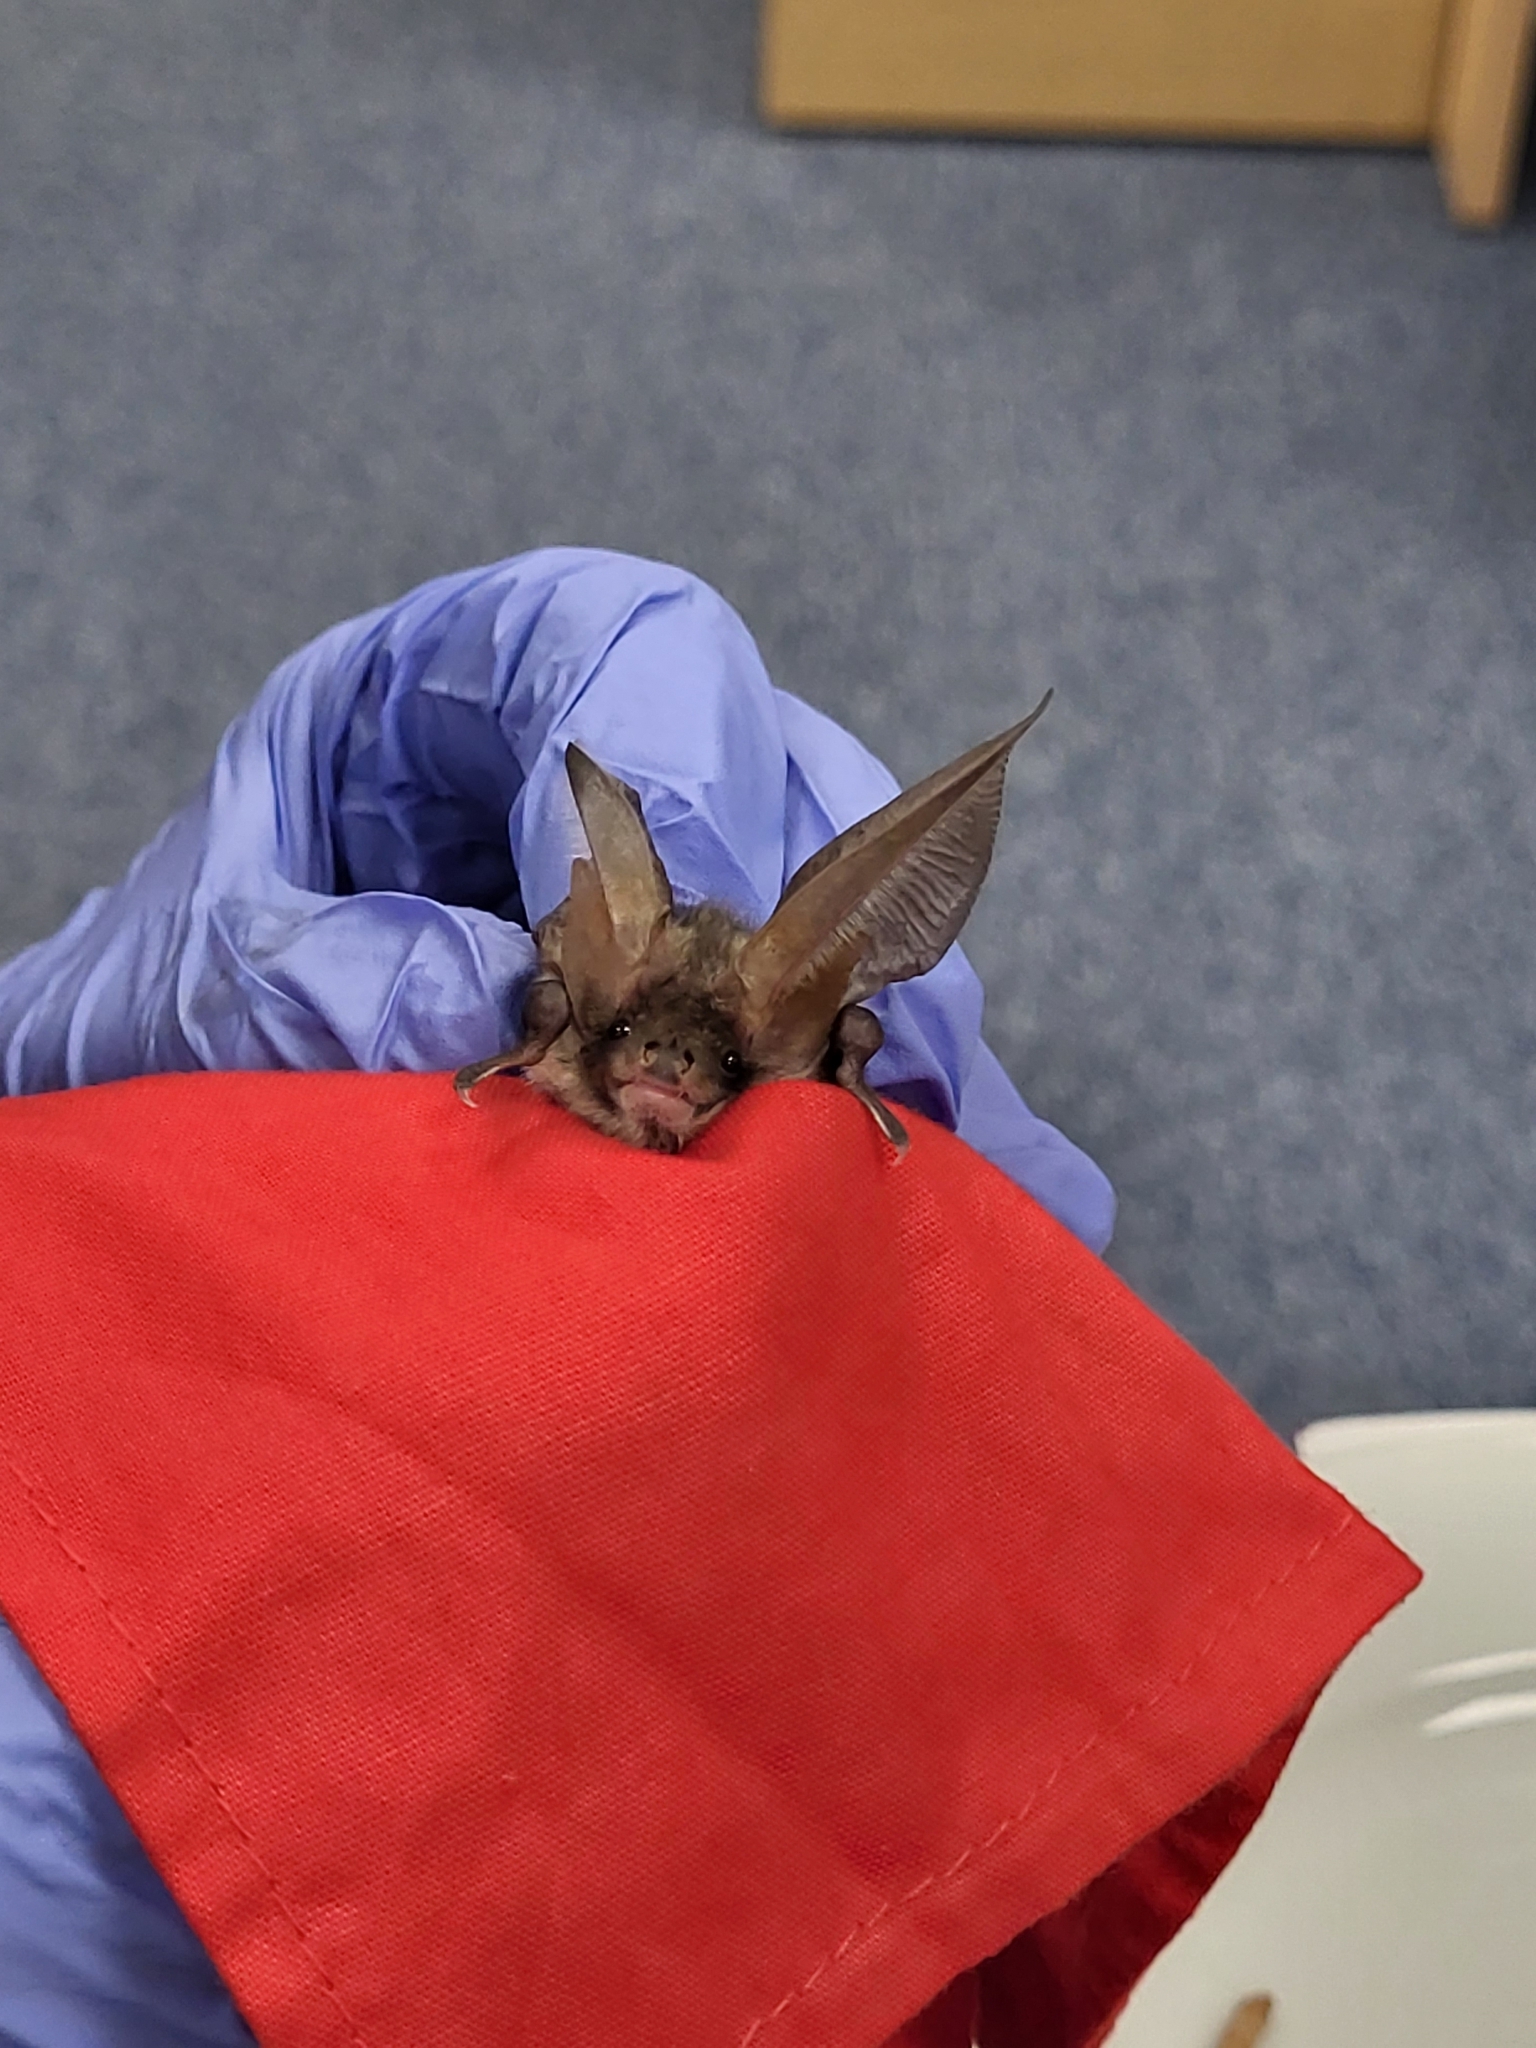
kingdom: Animalia
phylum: Chordata
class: Mammalia
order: Chiroptera
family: Vespertilionidae
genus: Plecotus
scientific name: Plecotus auritus
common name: Brown long-eared bat
